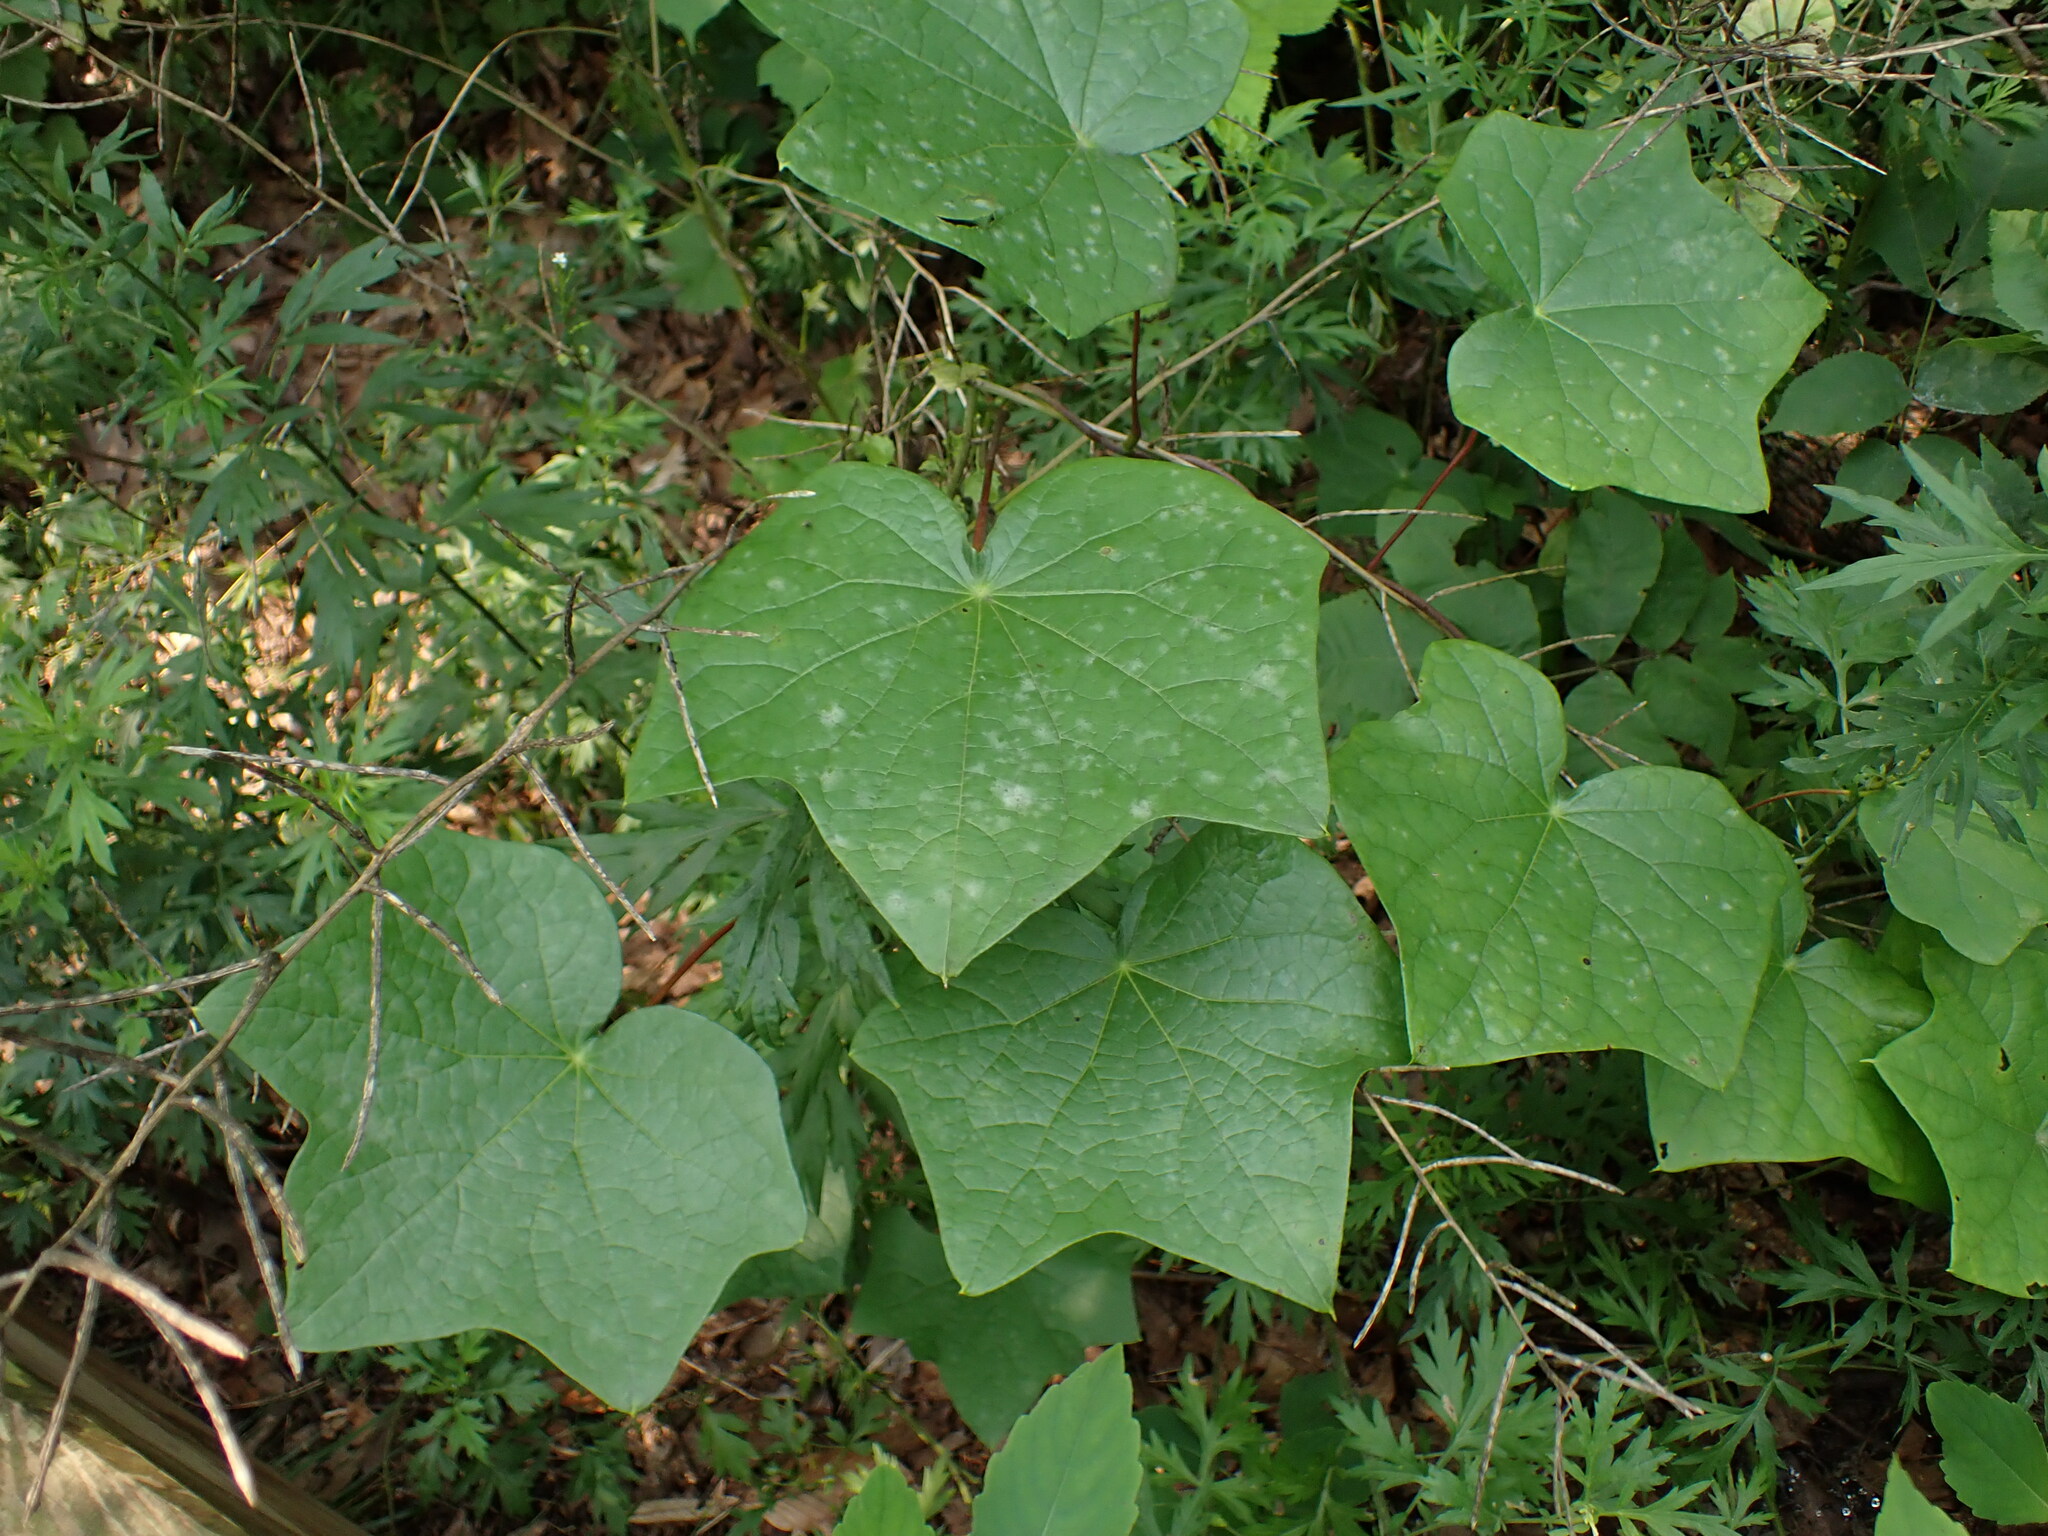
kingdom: Fungi
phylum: Ascomycota
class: Leotiomycetes
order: Helotiales
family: Erysiphaceae
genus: Erysiphe
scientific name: Erysiphe menispermi
